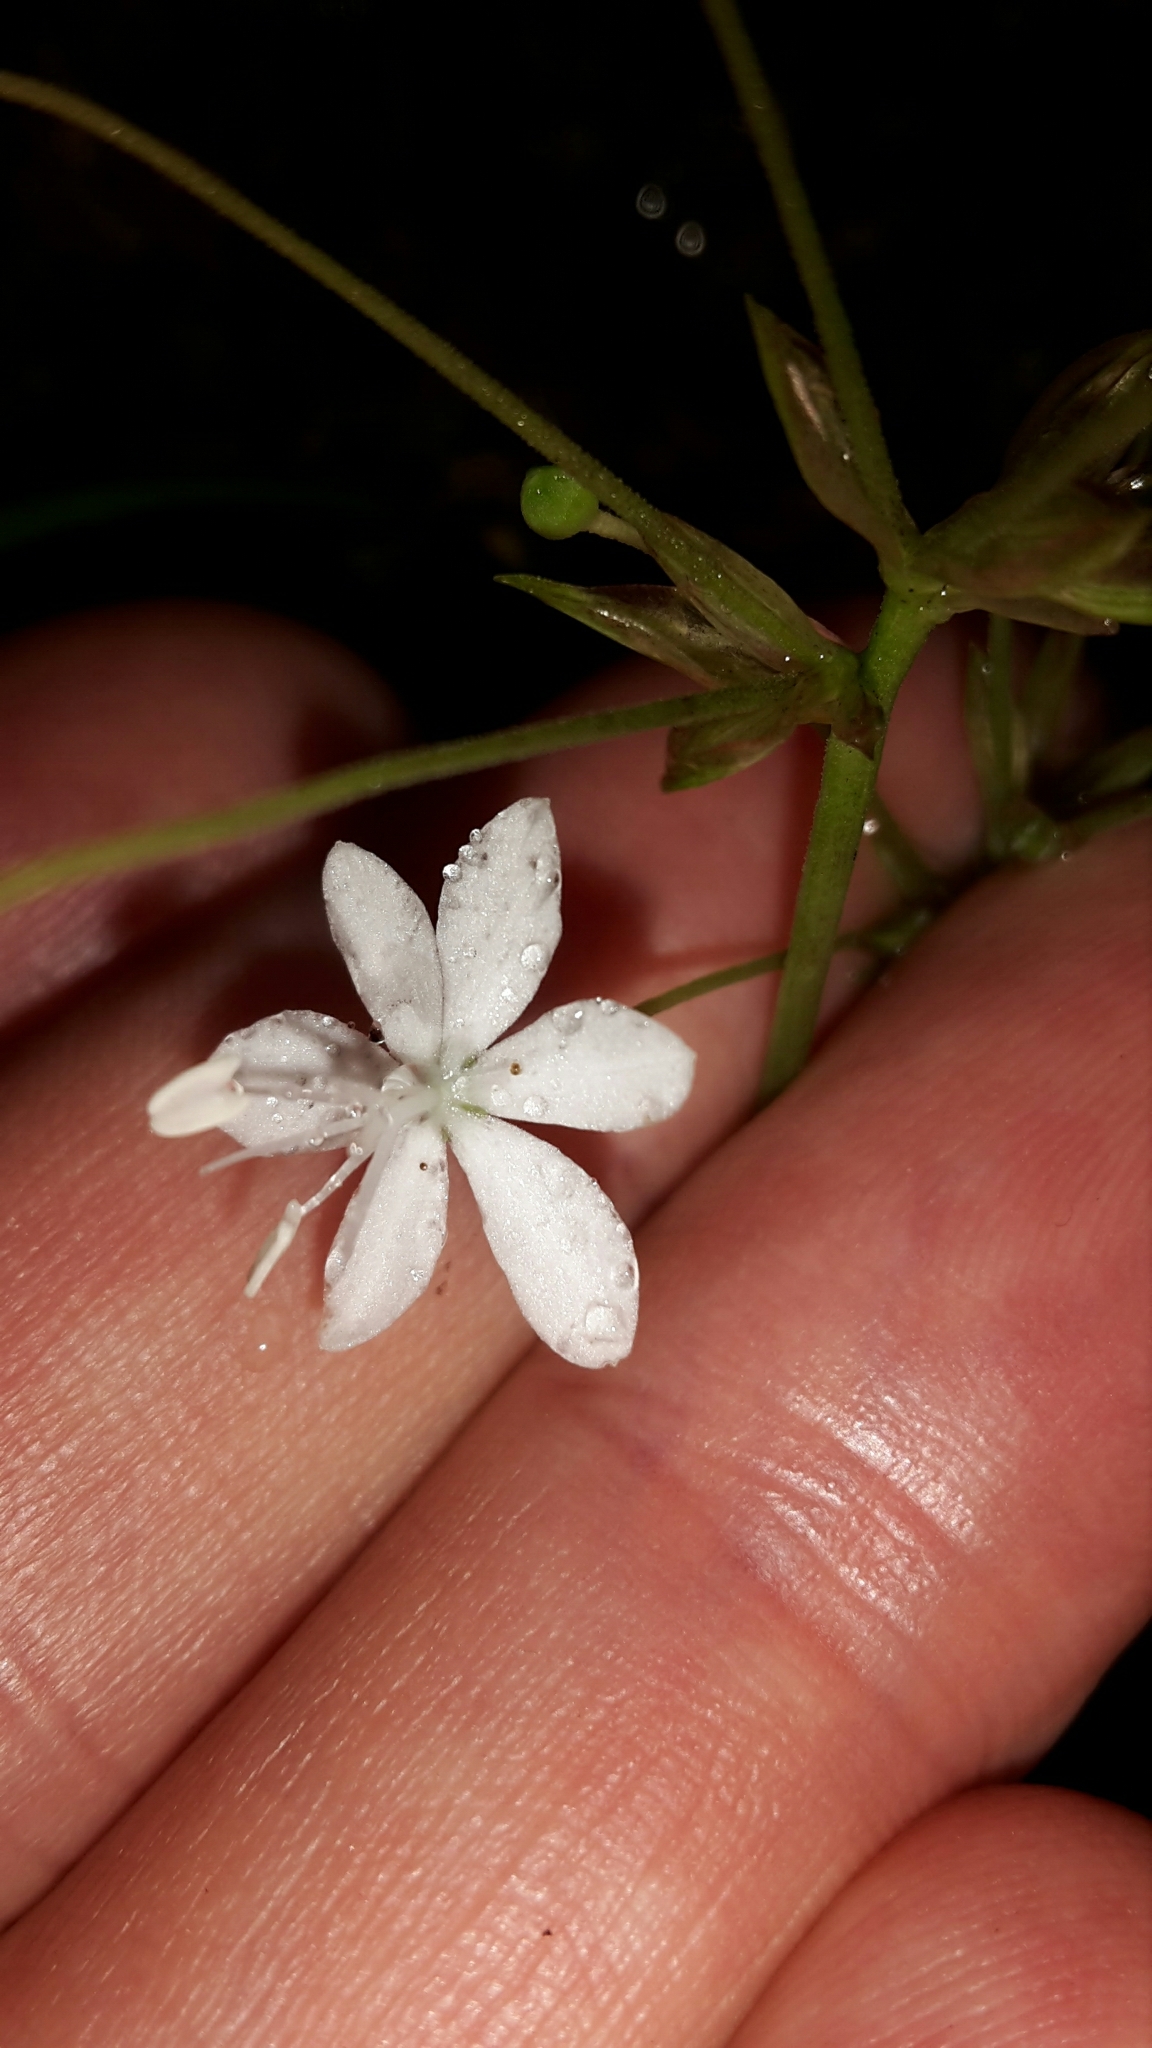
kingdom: Plantae
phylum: Tracheophyta
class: Liliopsida
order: Asparagales
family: Iridaceae
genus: Libertia
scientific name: Libertia micrantha
